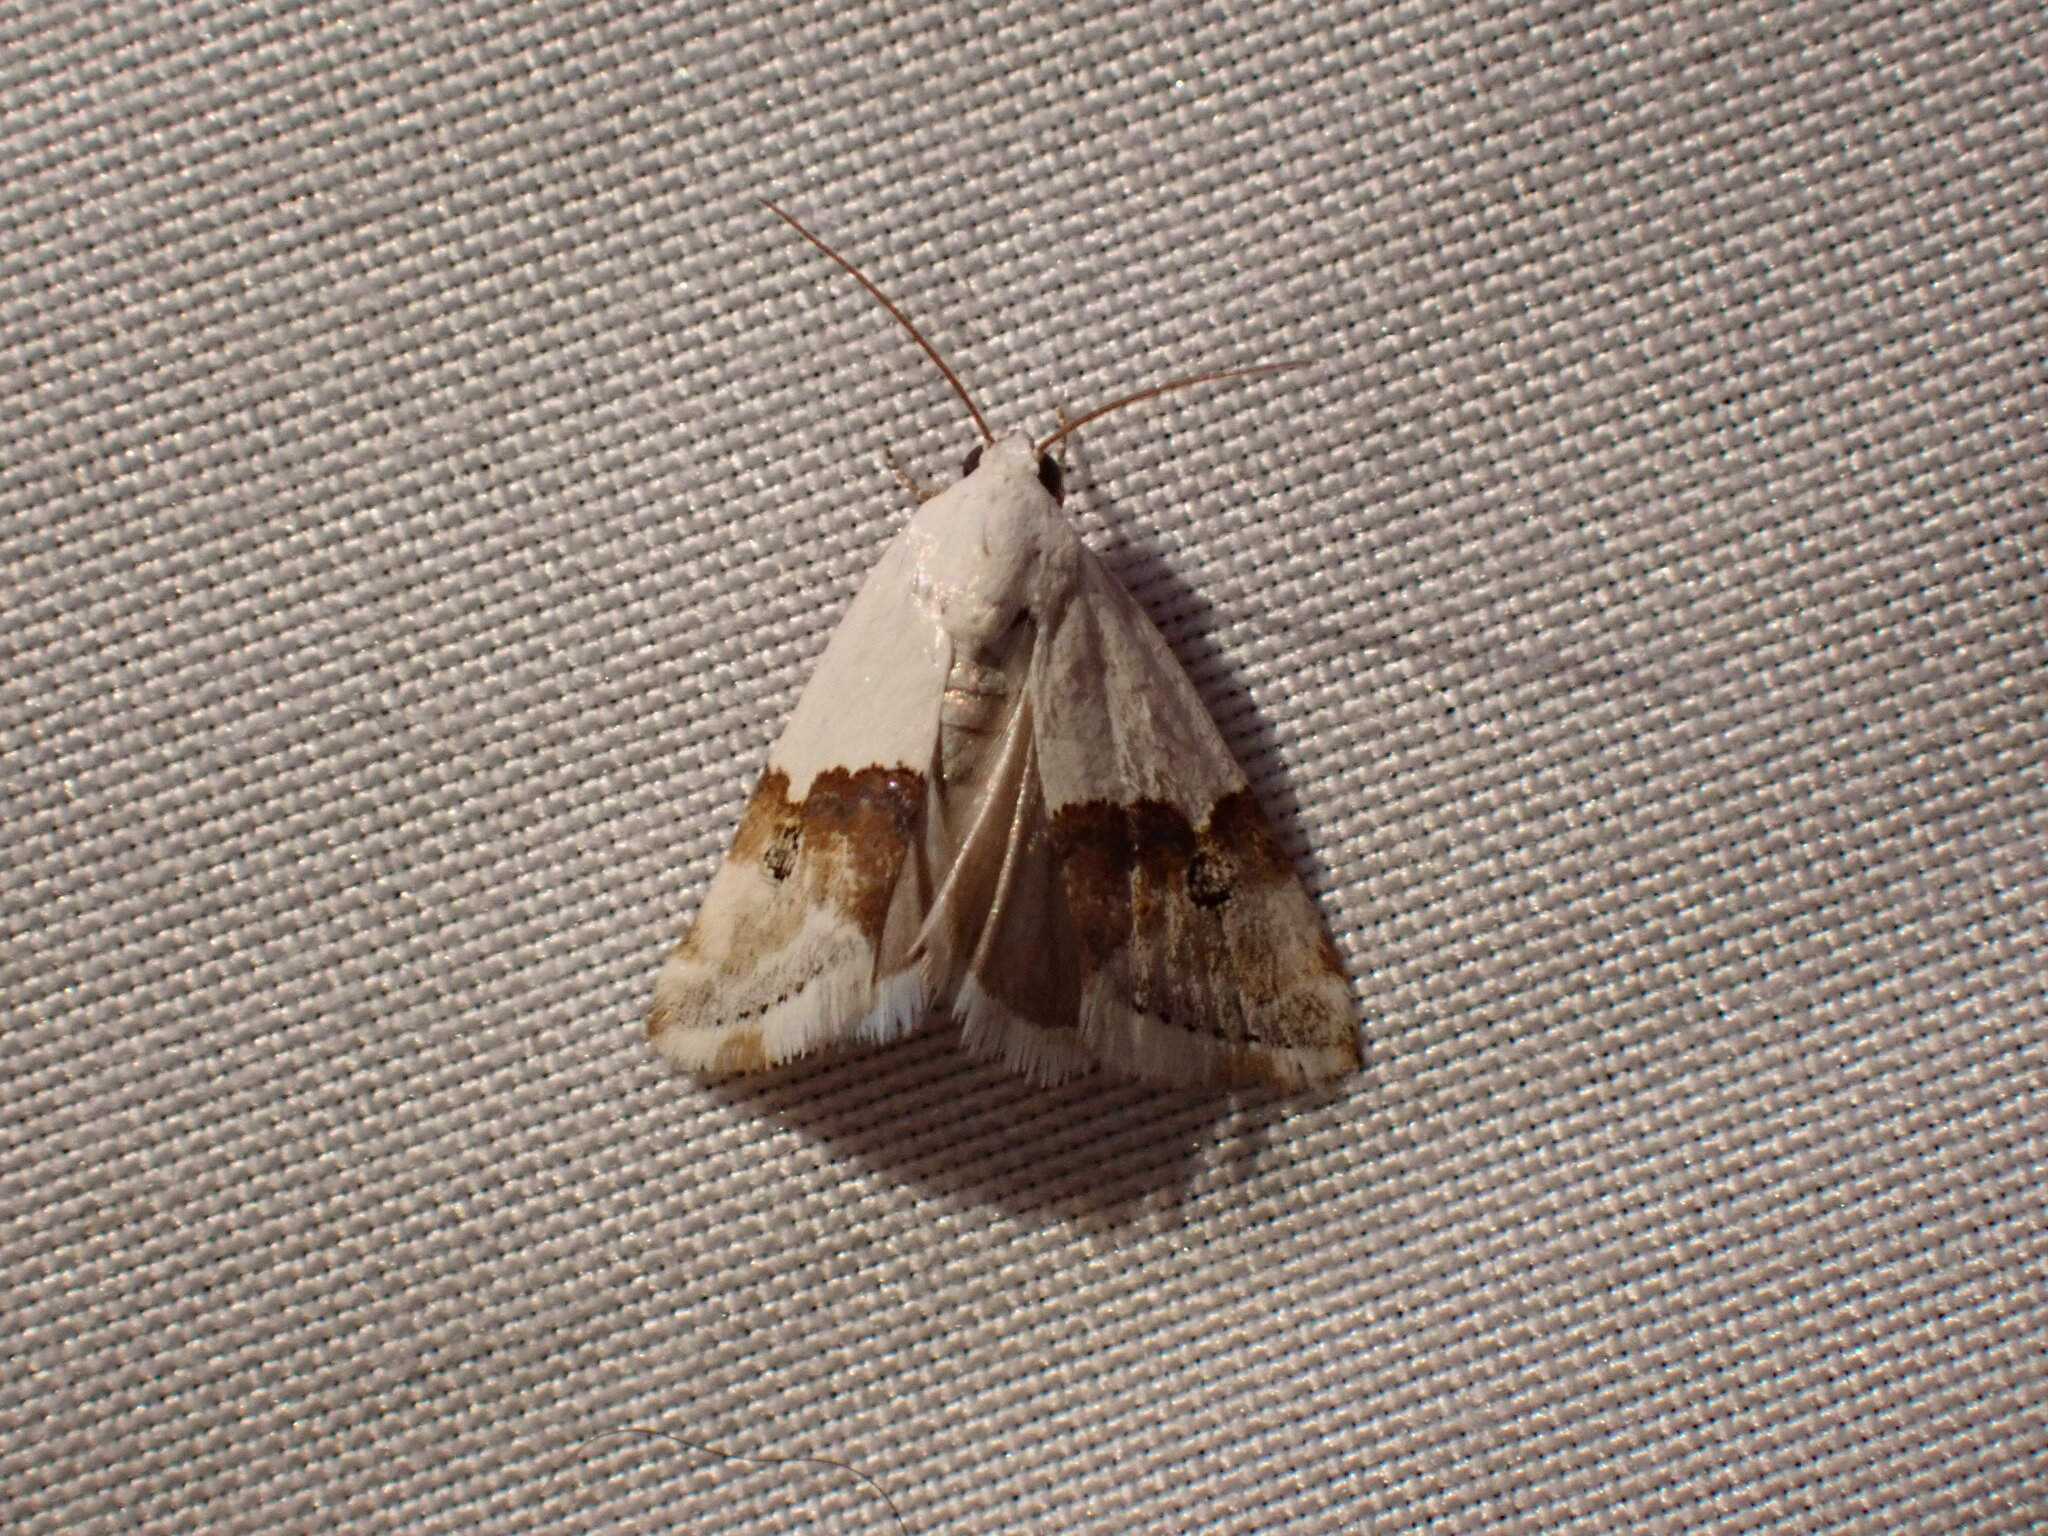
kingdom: Animalia
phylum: Arthropoda
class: Insecta
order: Lepidoptera
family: Noctuidae
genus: Ponometia
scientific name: Ponometia elegantula
